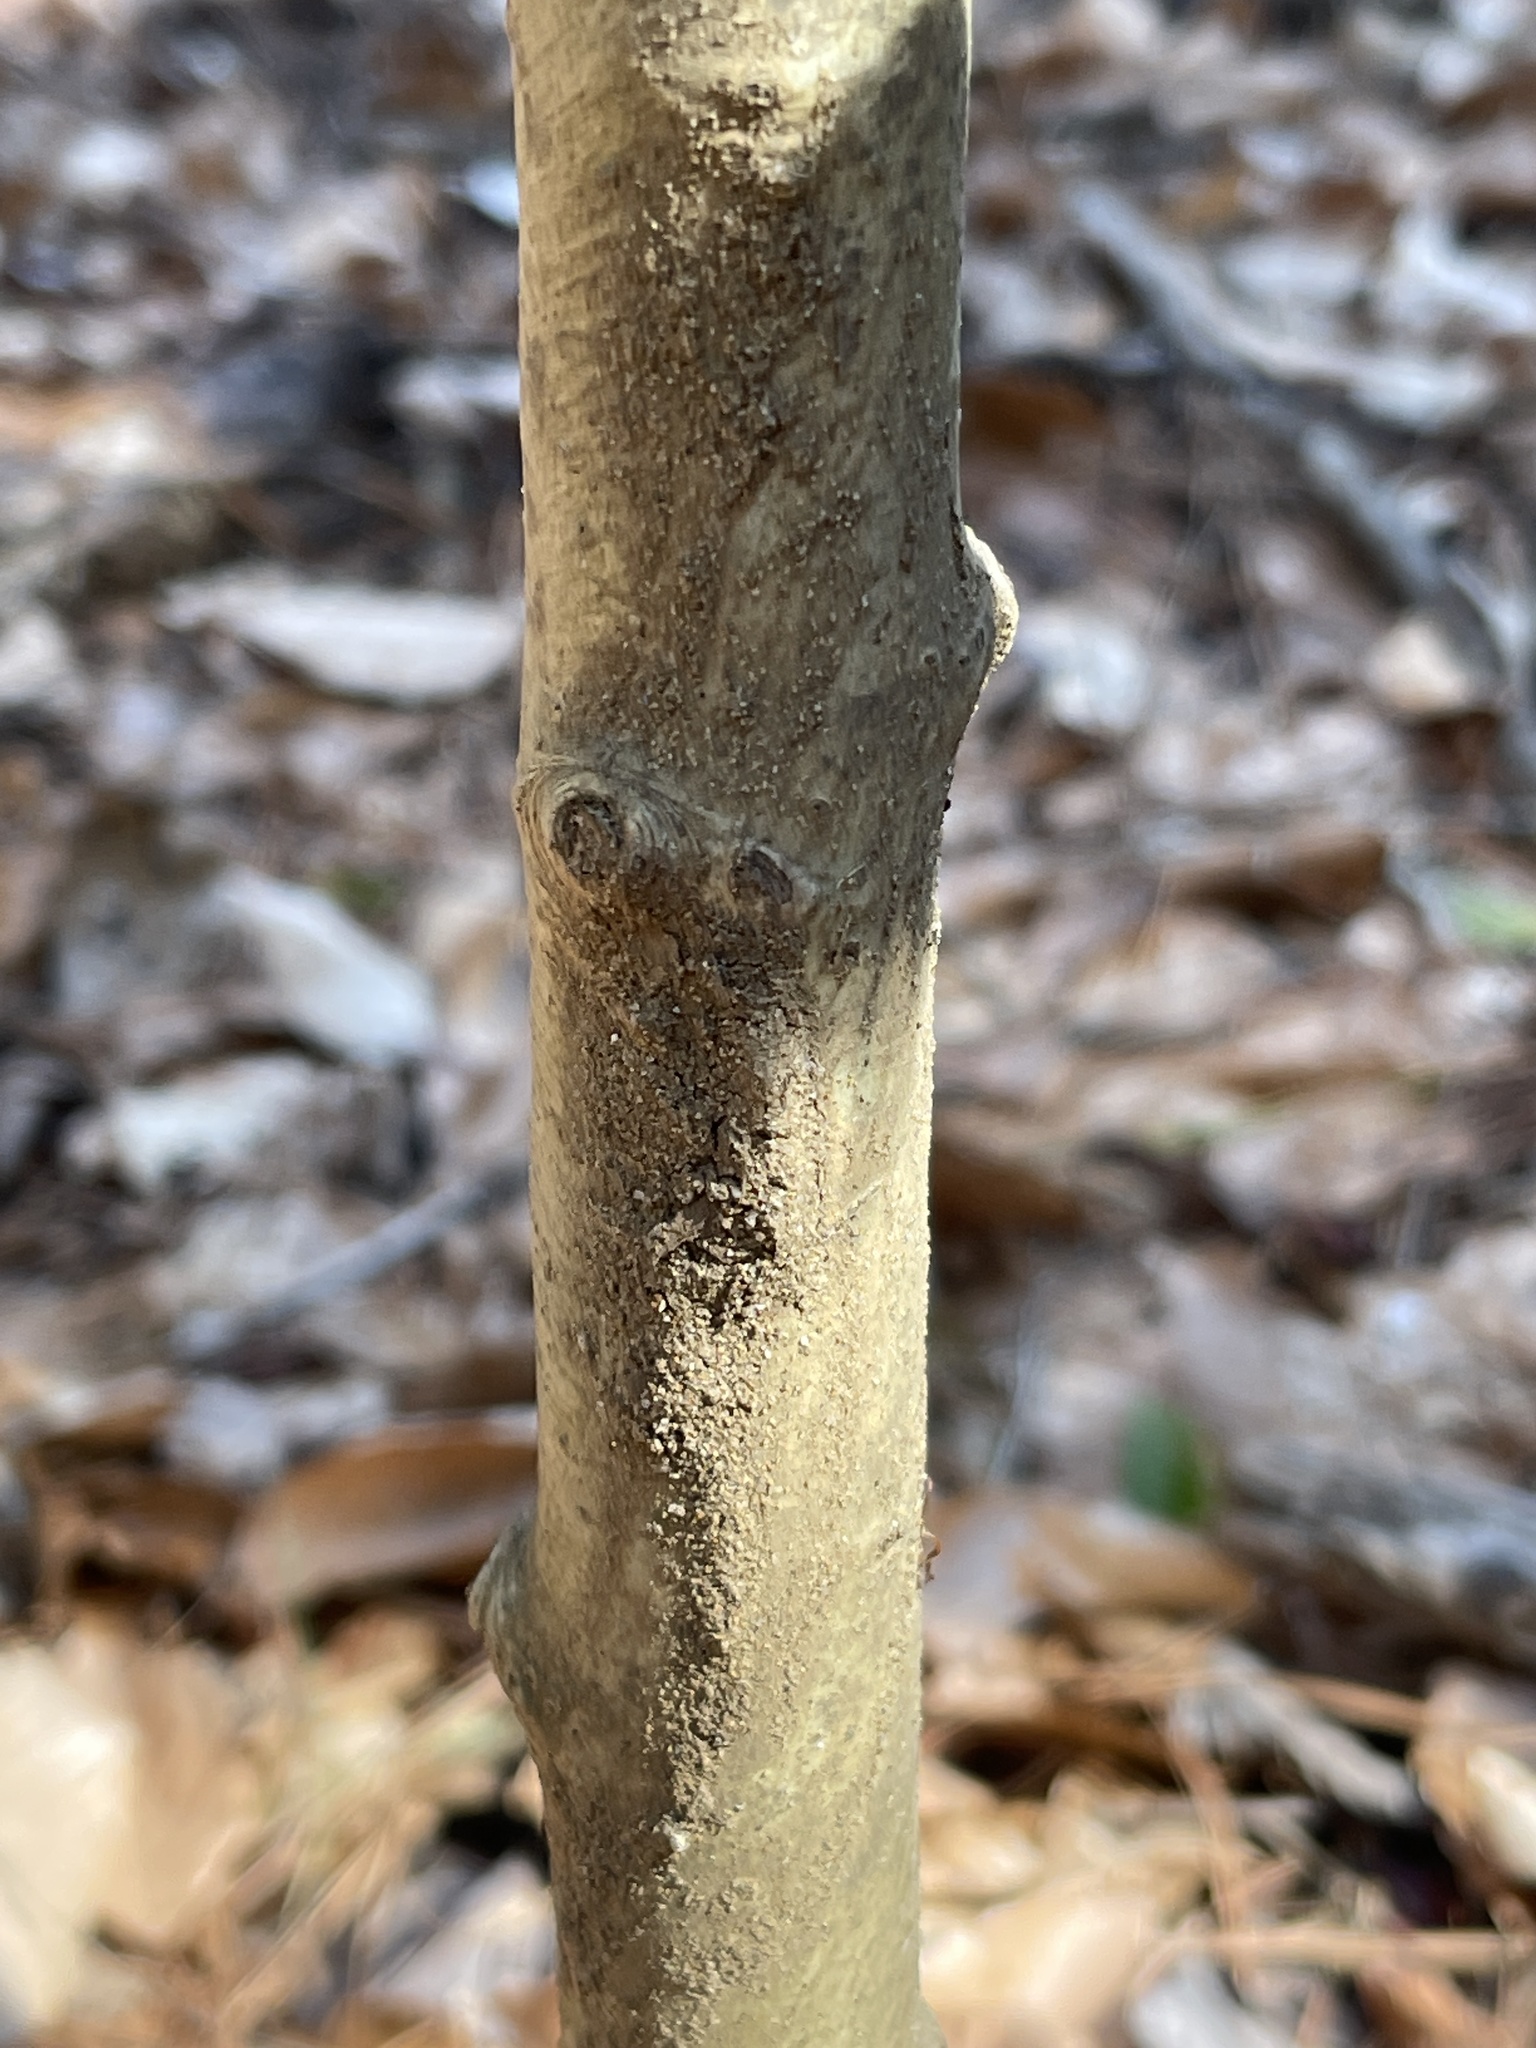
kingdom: Plantae
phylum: Tracheophyta
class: Magnoliopsida
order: Aquifoliales
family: Aquifoliaceae
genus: Ilex
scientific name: Ilex opaca
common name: American holly
